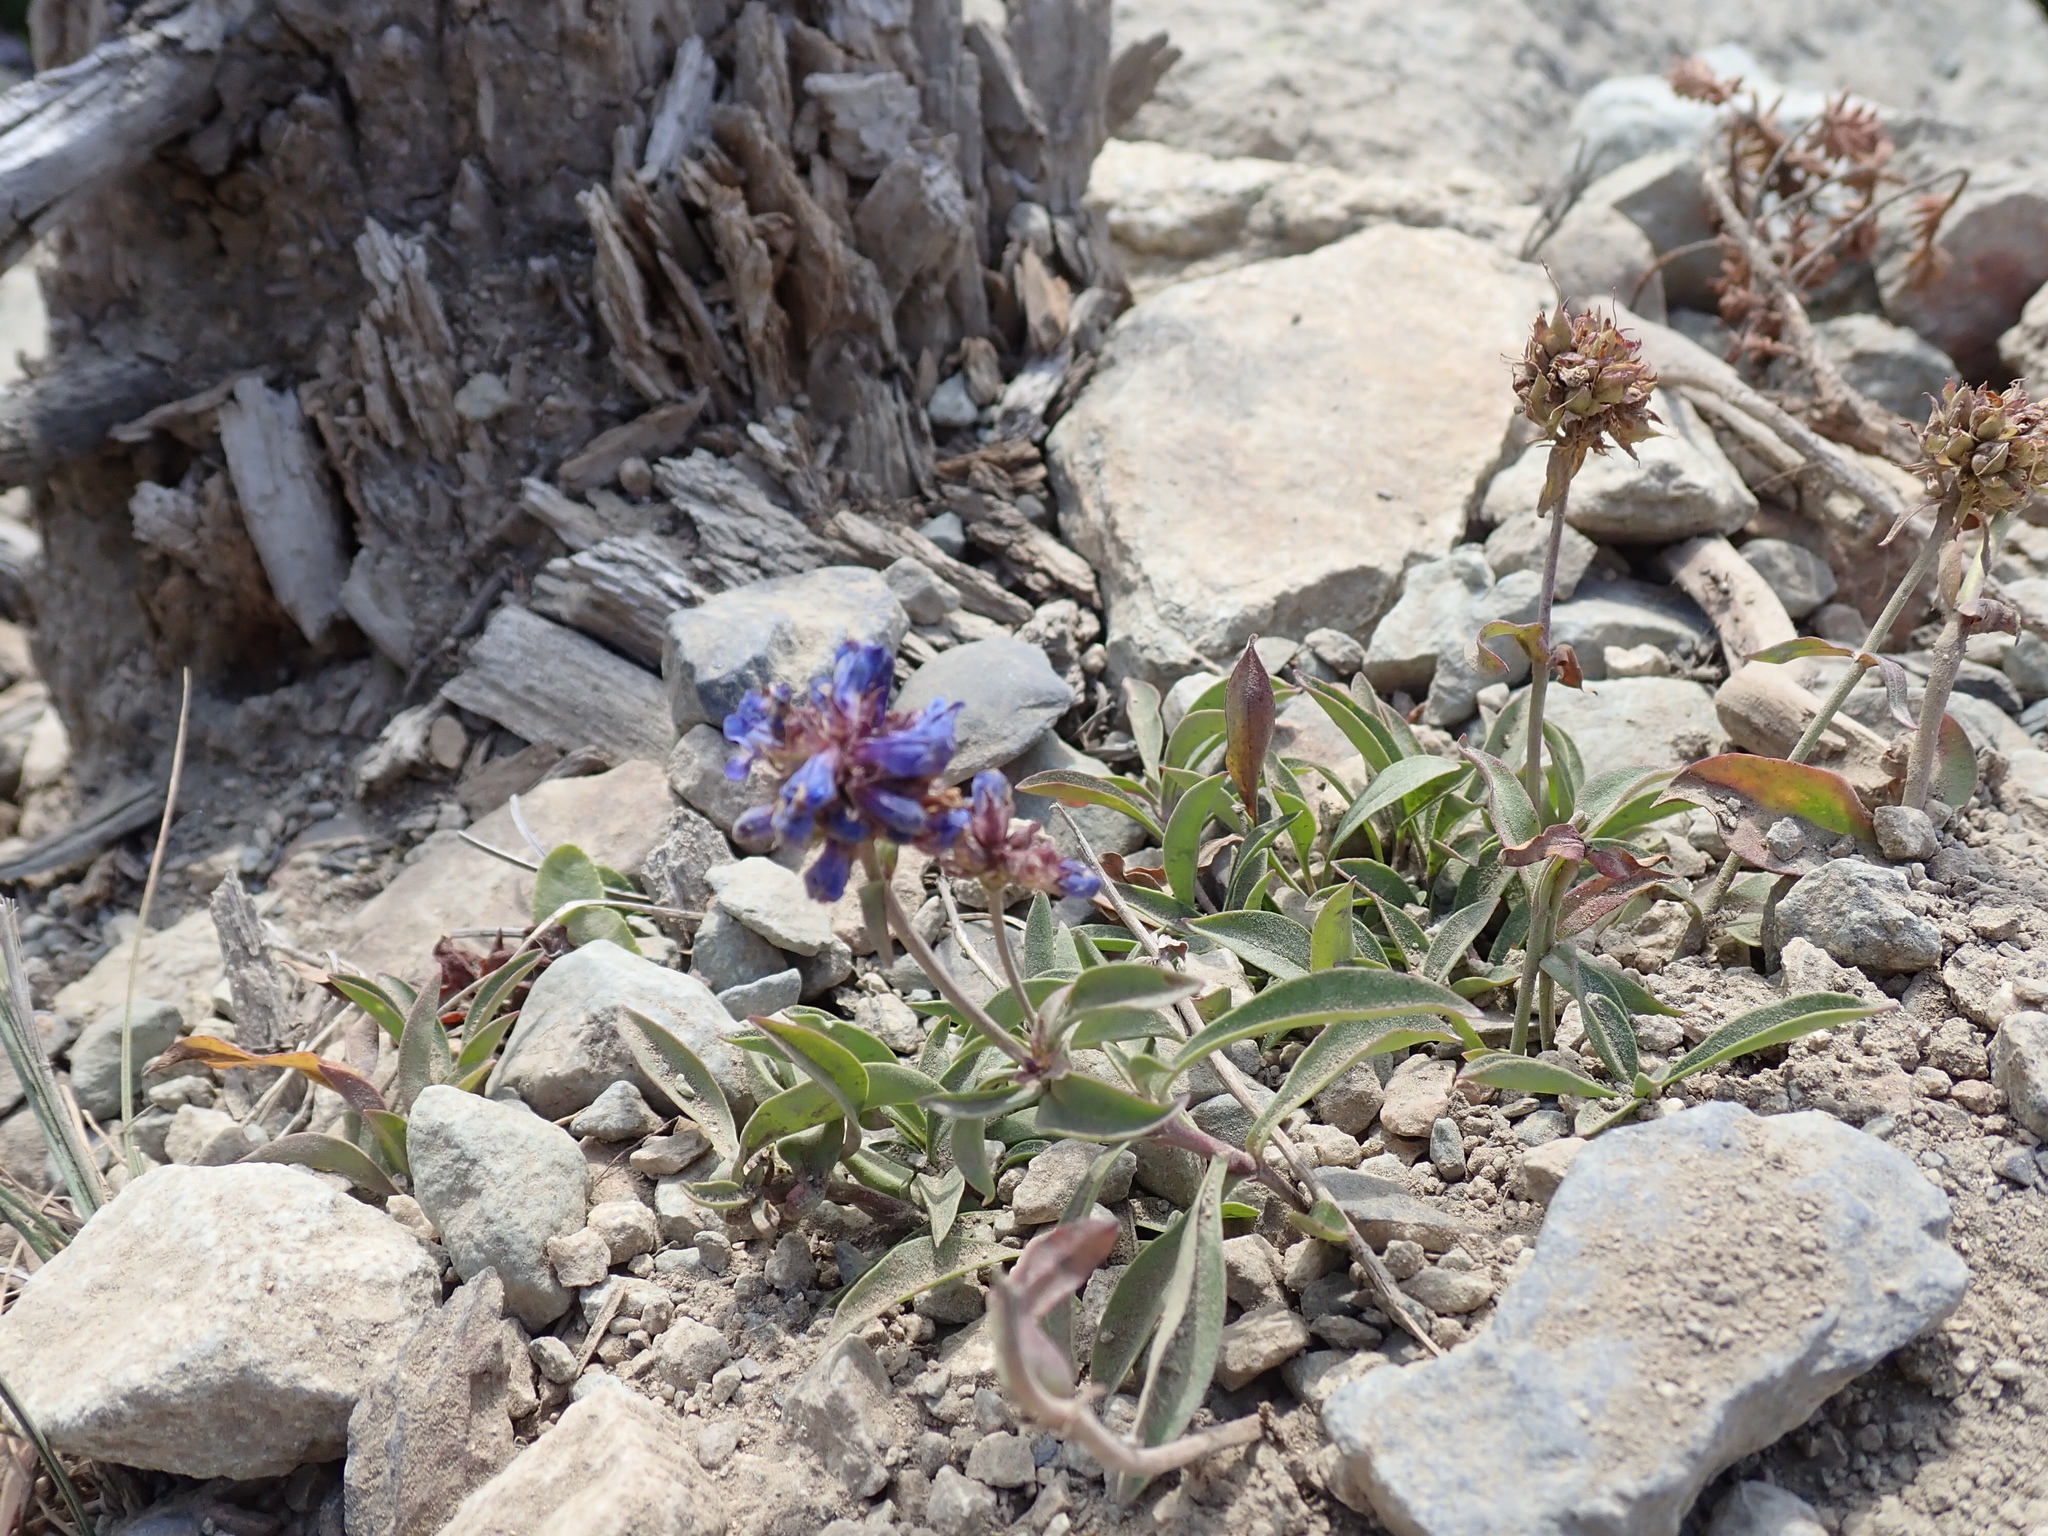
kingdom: Plantae
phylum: Tracheophyta
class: Magnoliopsida
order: Lamiales
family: Plantaginaceae
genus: Penstemon
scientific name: Penstemon procerus
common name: Small-flower penstemon
